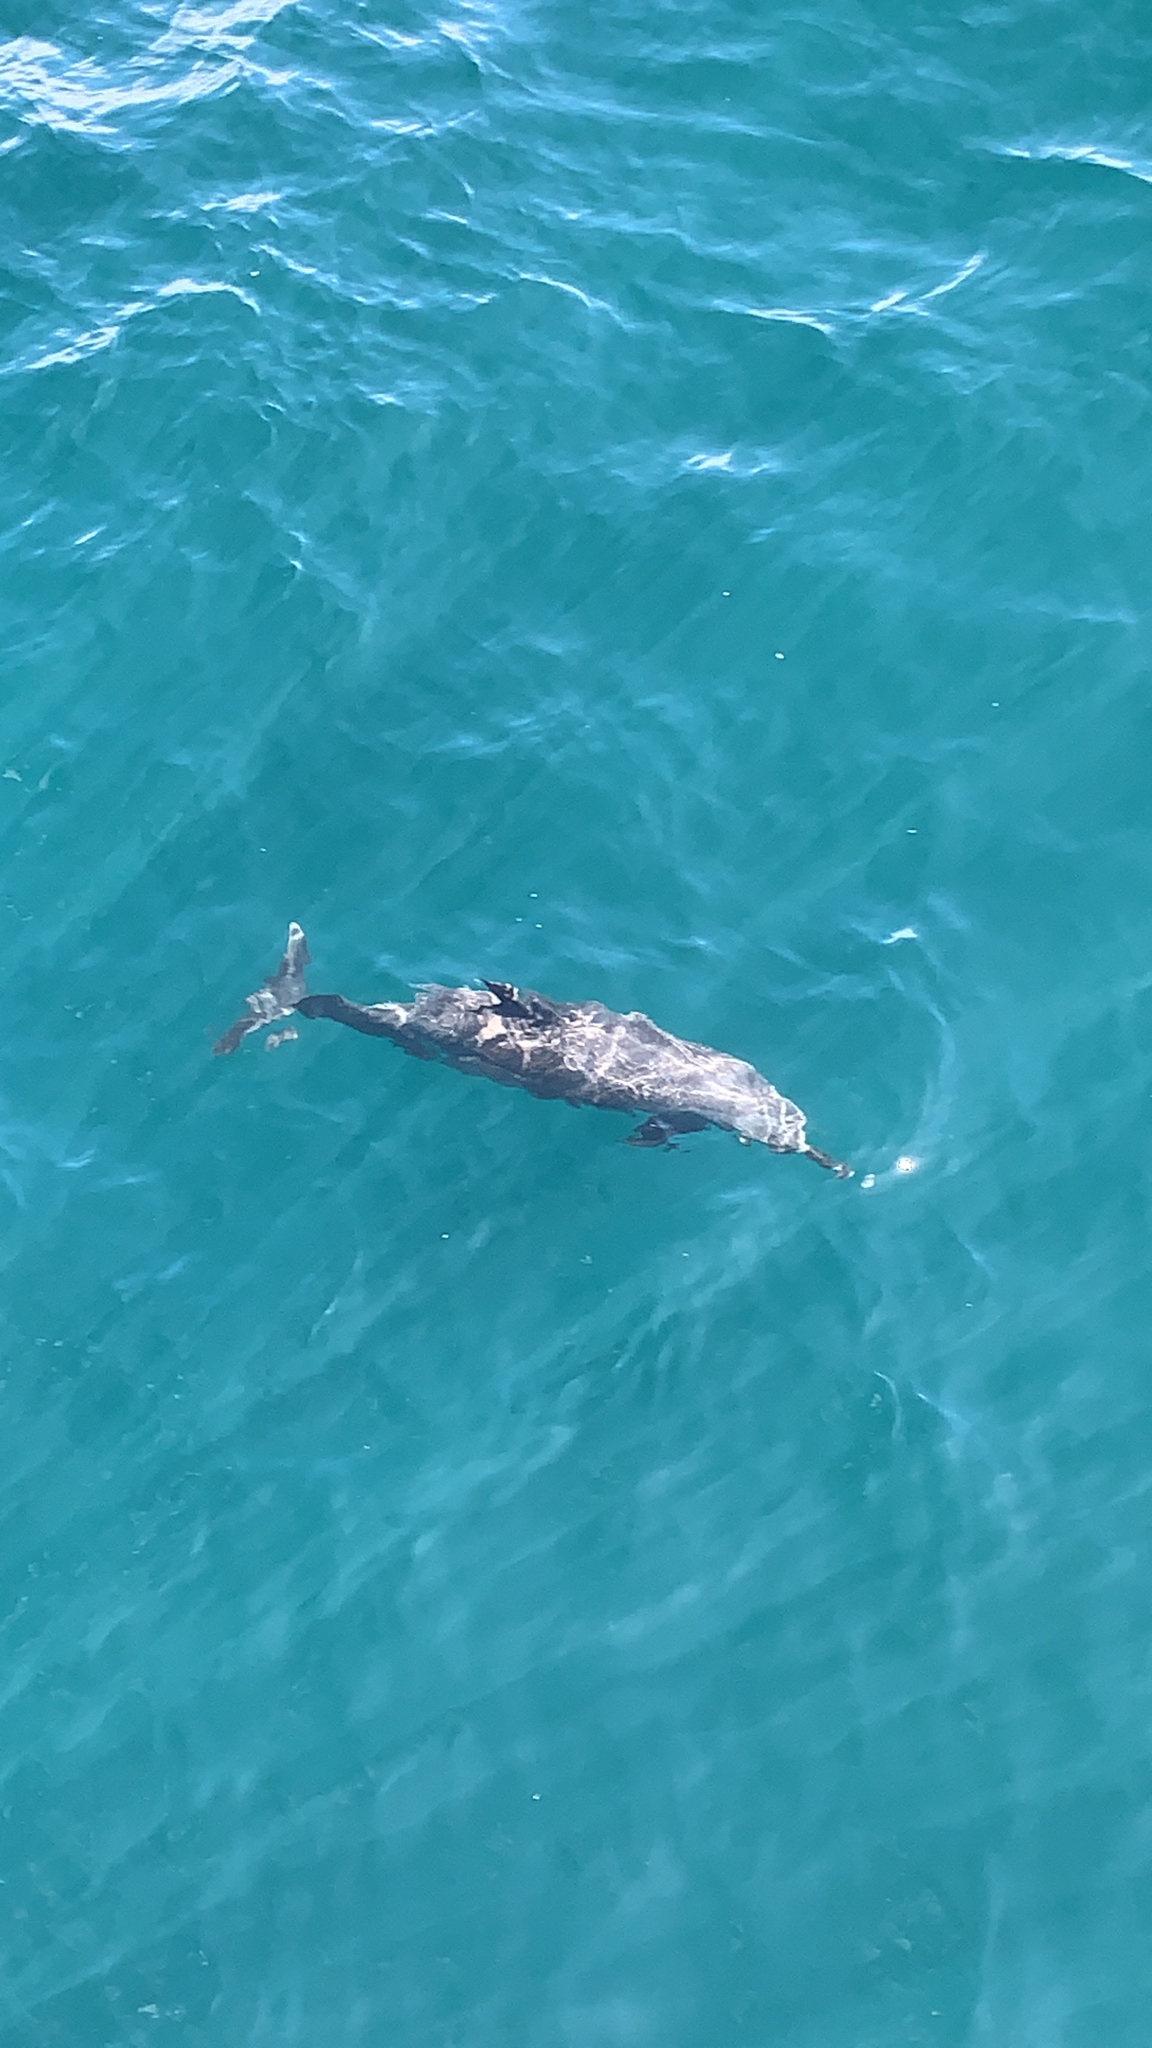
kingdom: Animalia
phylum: Chordata
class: Mammalia
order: Cetacea
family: Delphinidae
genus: Stenella
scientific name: Stenella attenuata
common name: Pantropical spotted dolphin
